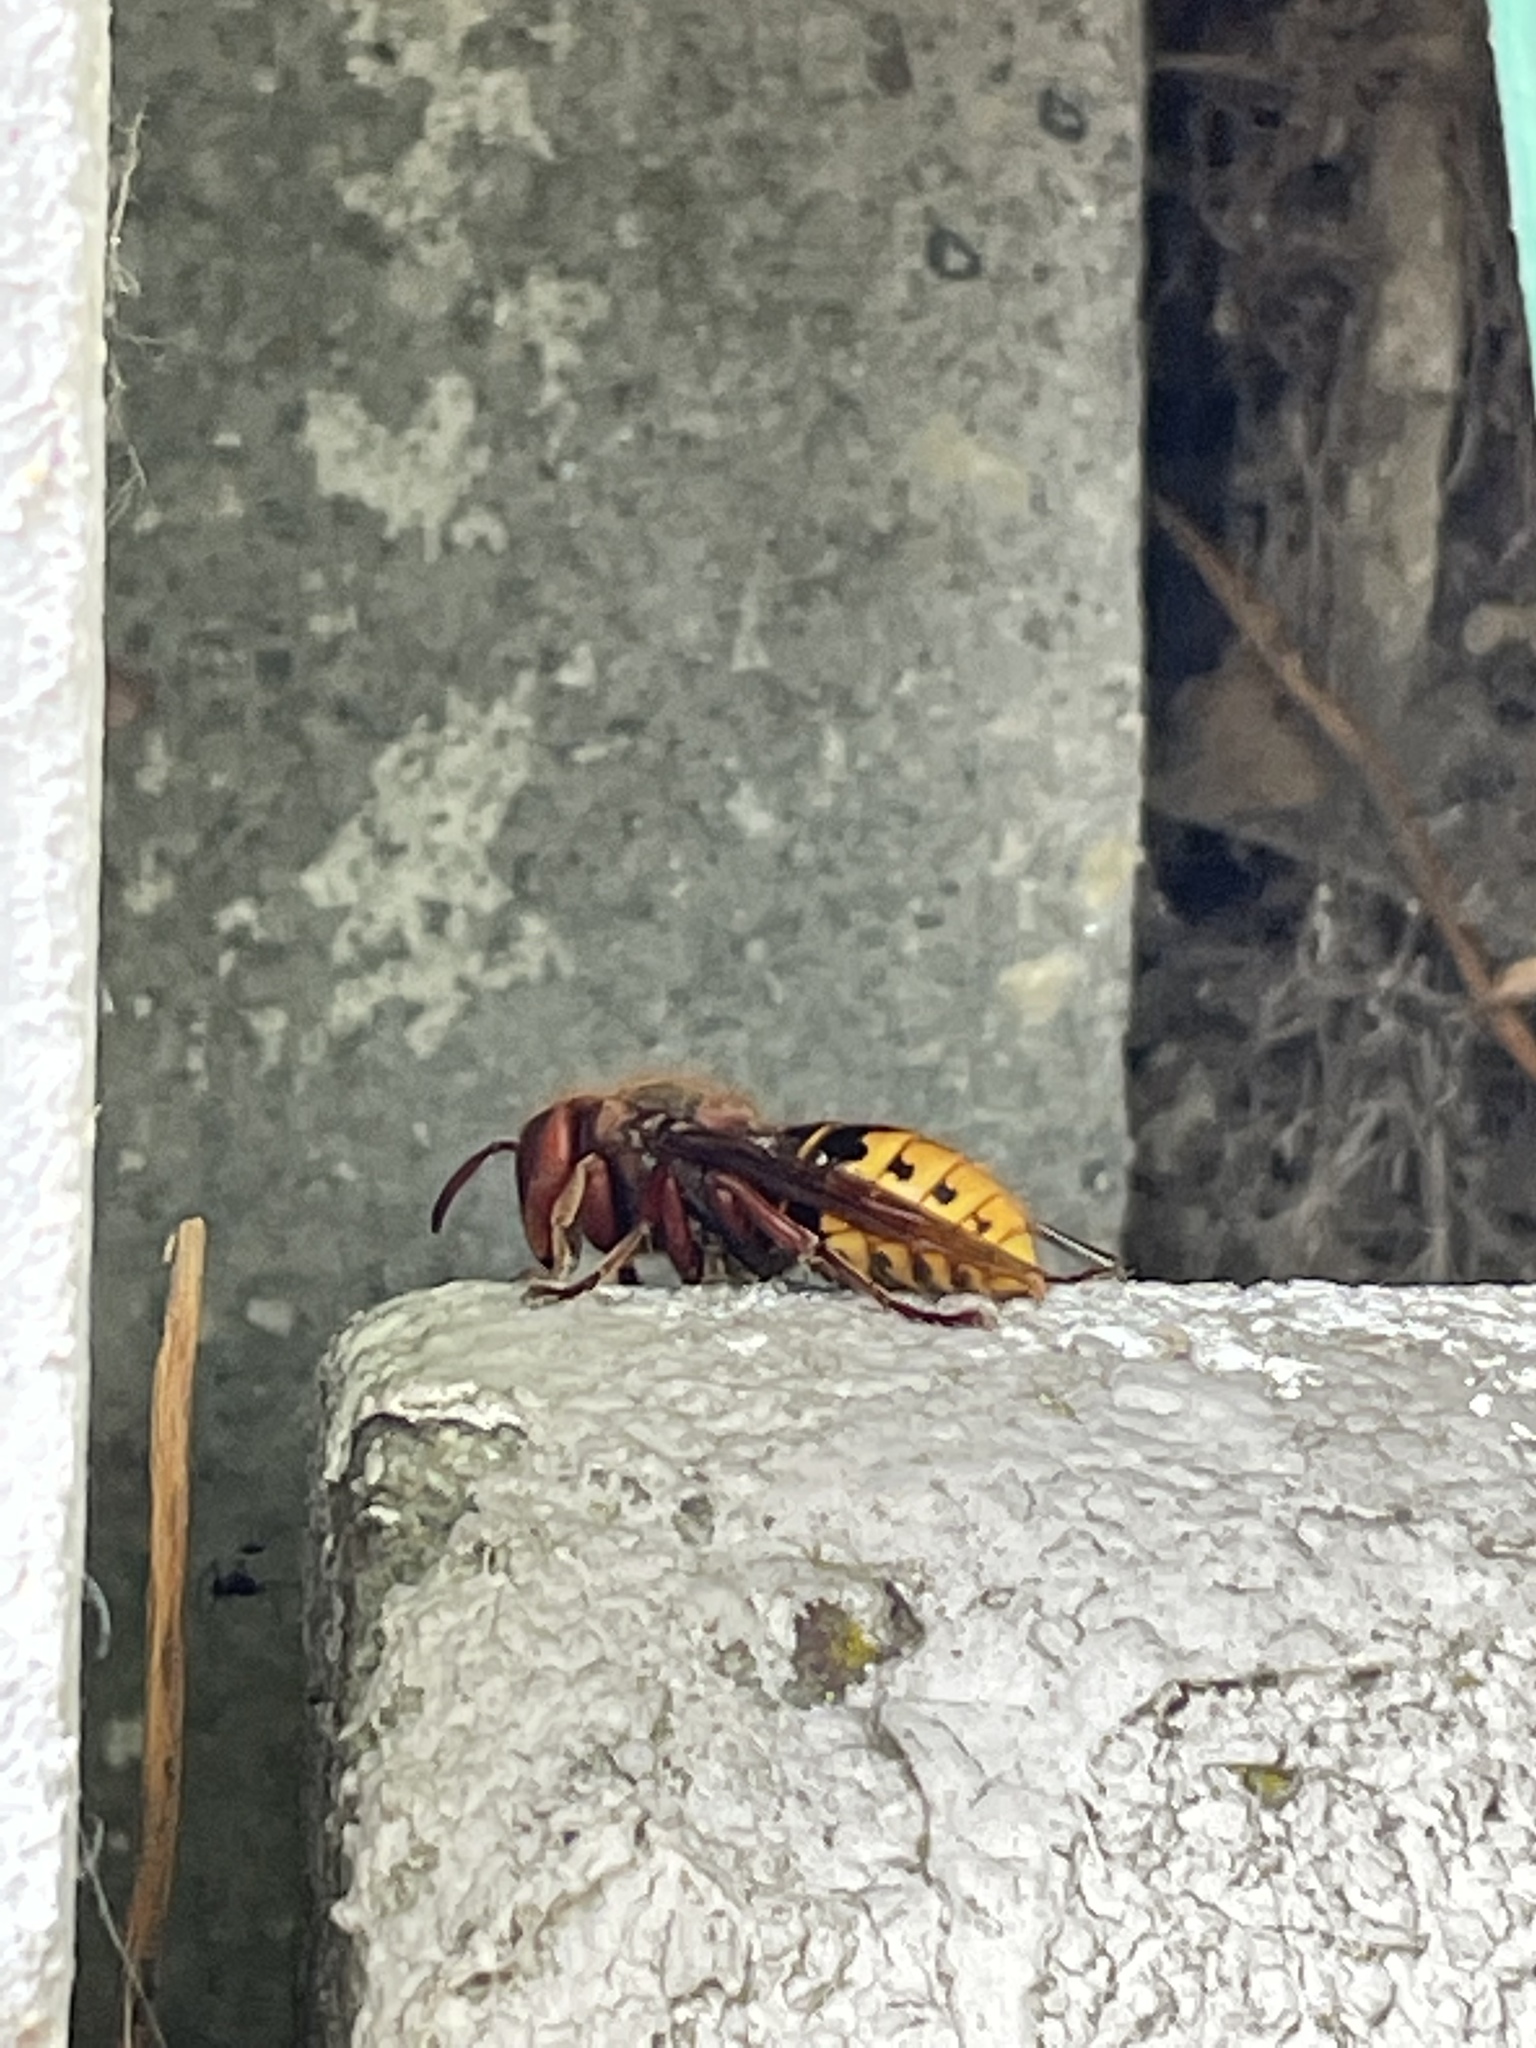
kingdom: Animalia
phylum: Arthropoda
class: Insecta
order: Hymenoptera
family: Vespidae
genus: Vespa
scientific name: Vespa crabro
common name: Hornet
